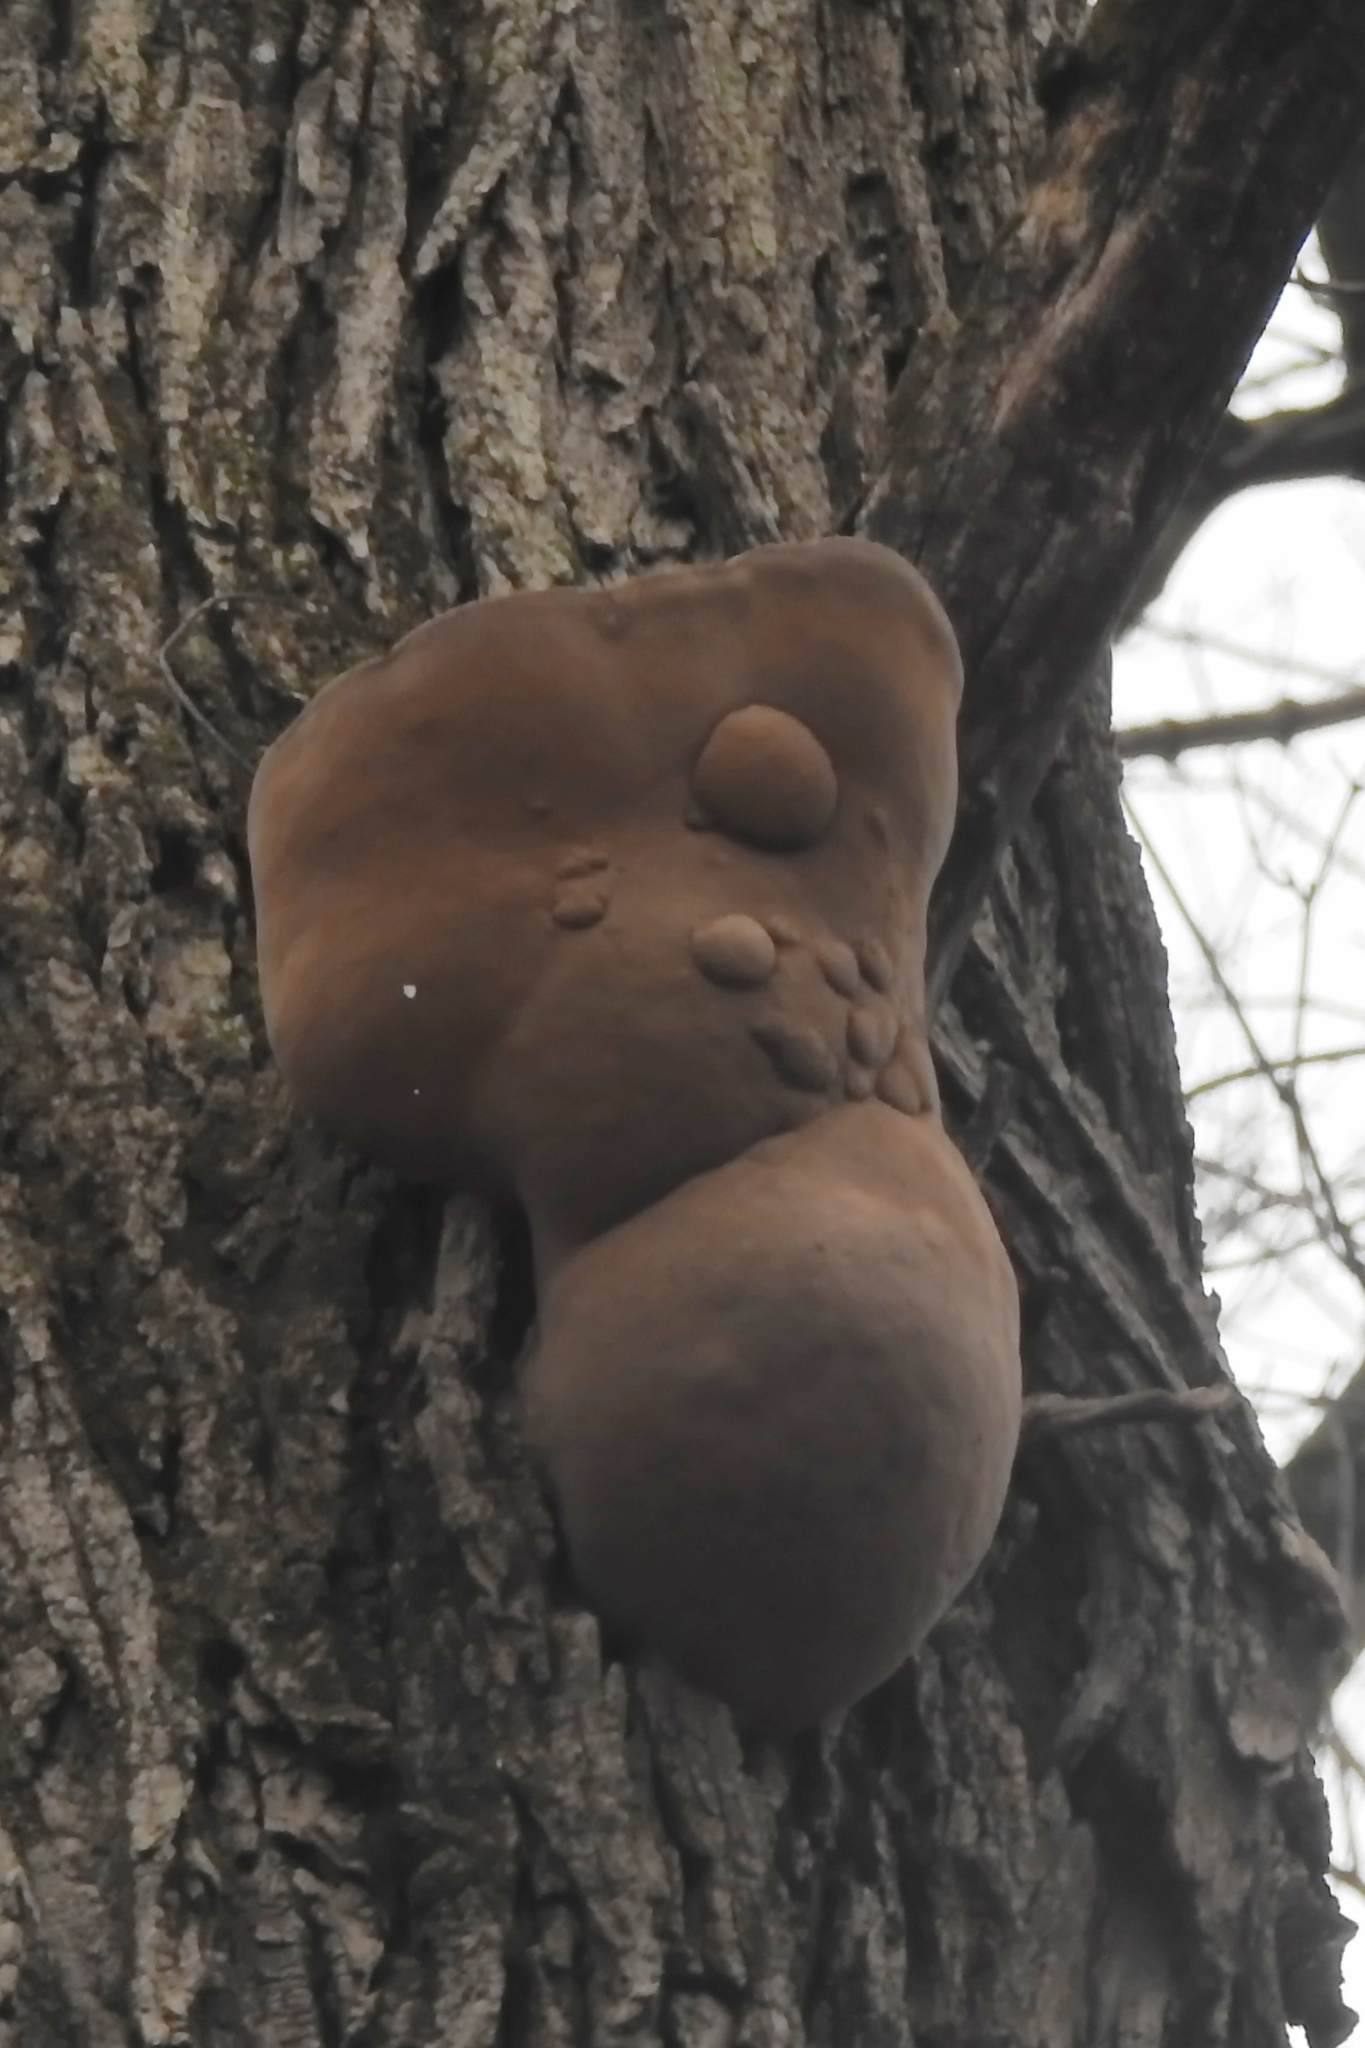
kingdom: Fungi
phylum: Basidiomycota
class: Agaricomycetes
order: Hymenochaetales
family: Hymenochaetaceae
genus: Phellinus
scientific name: Phellinus robiniae
